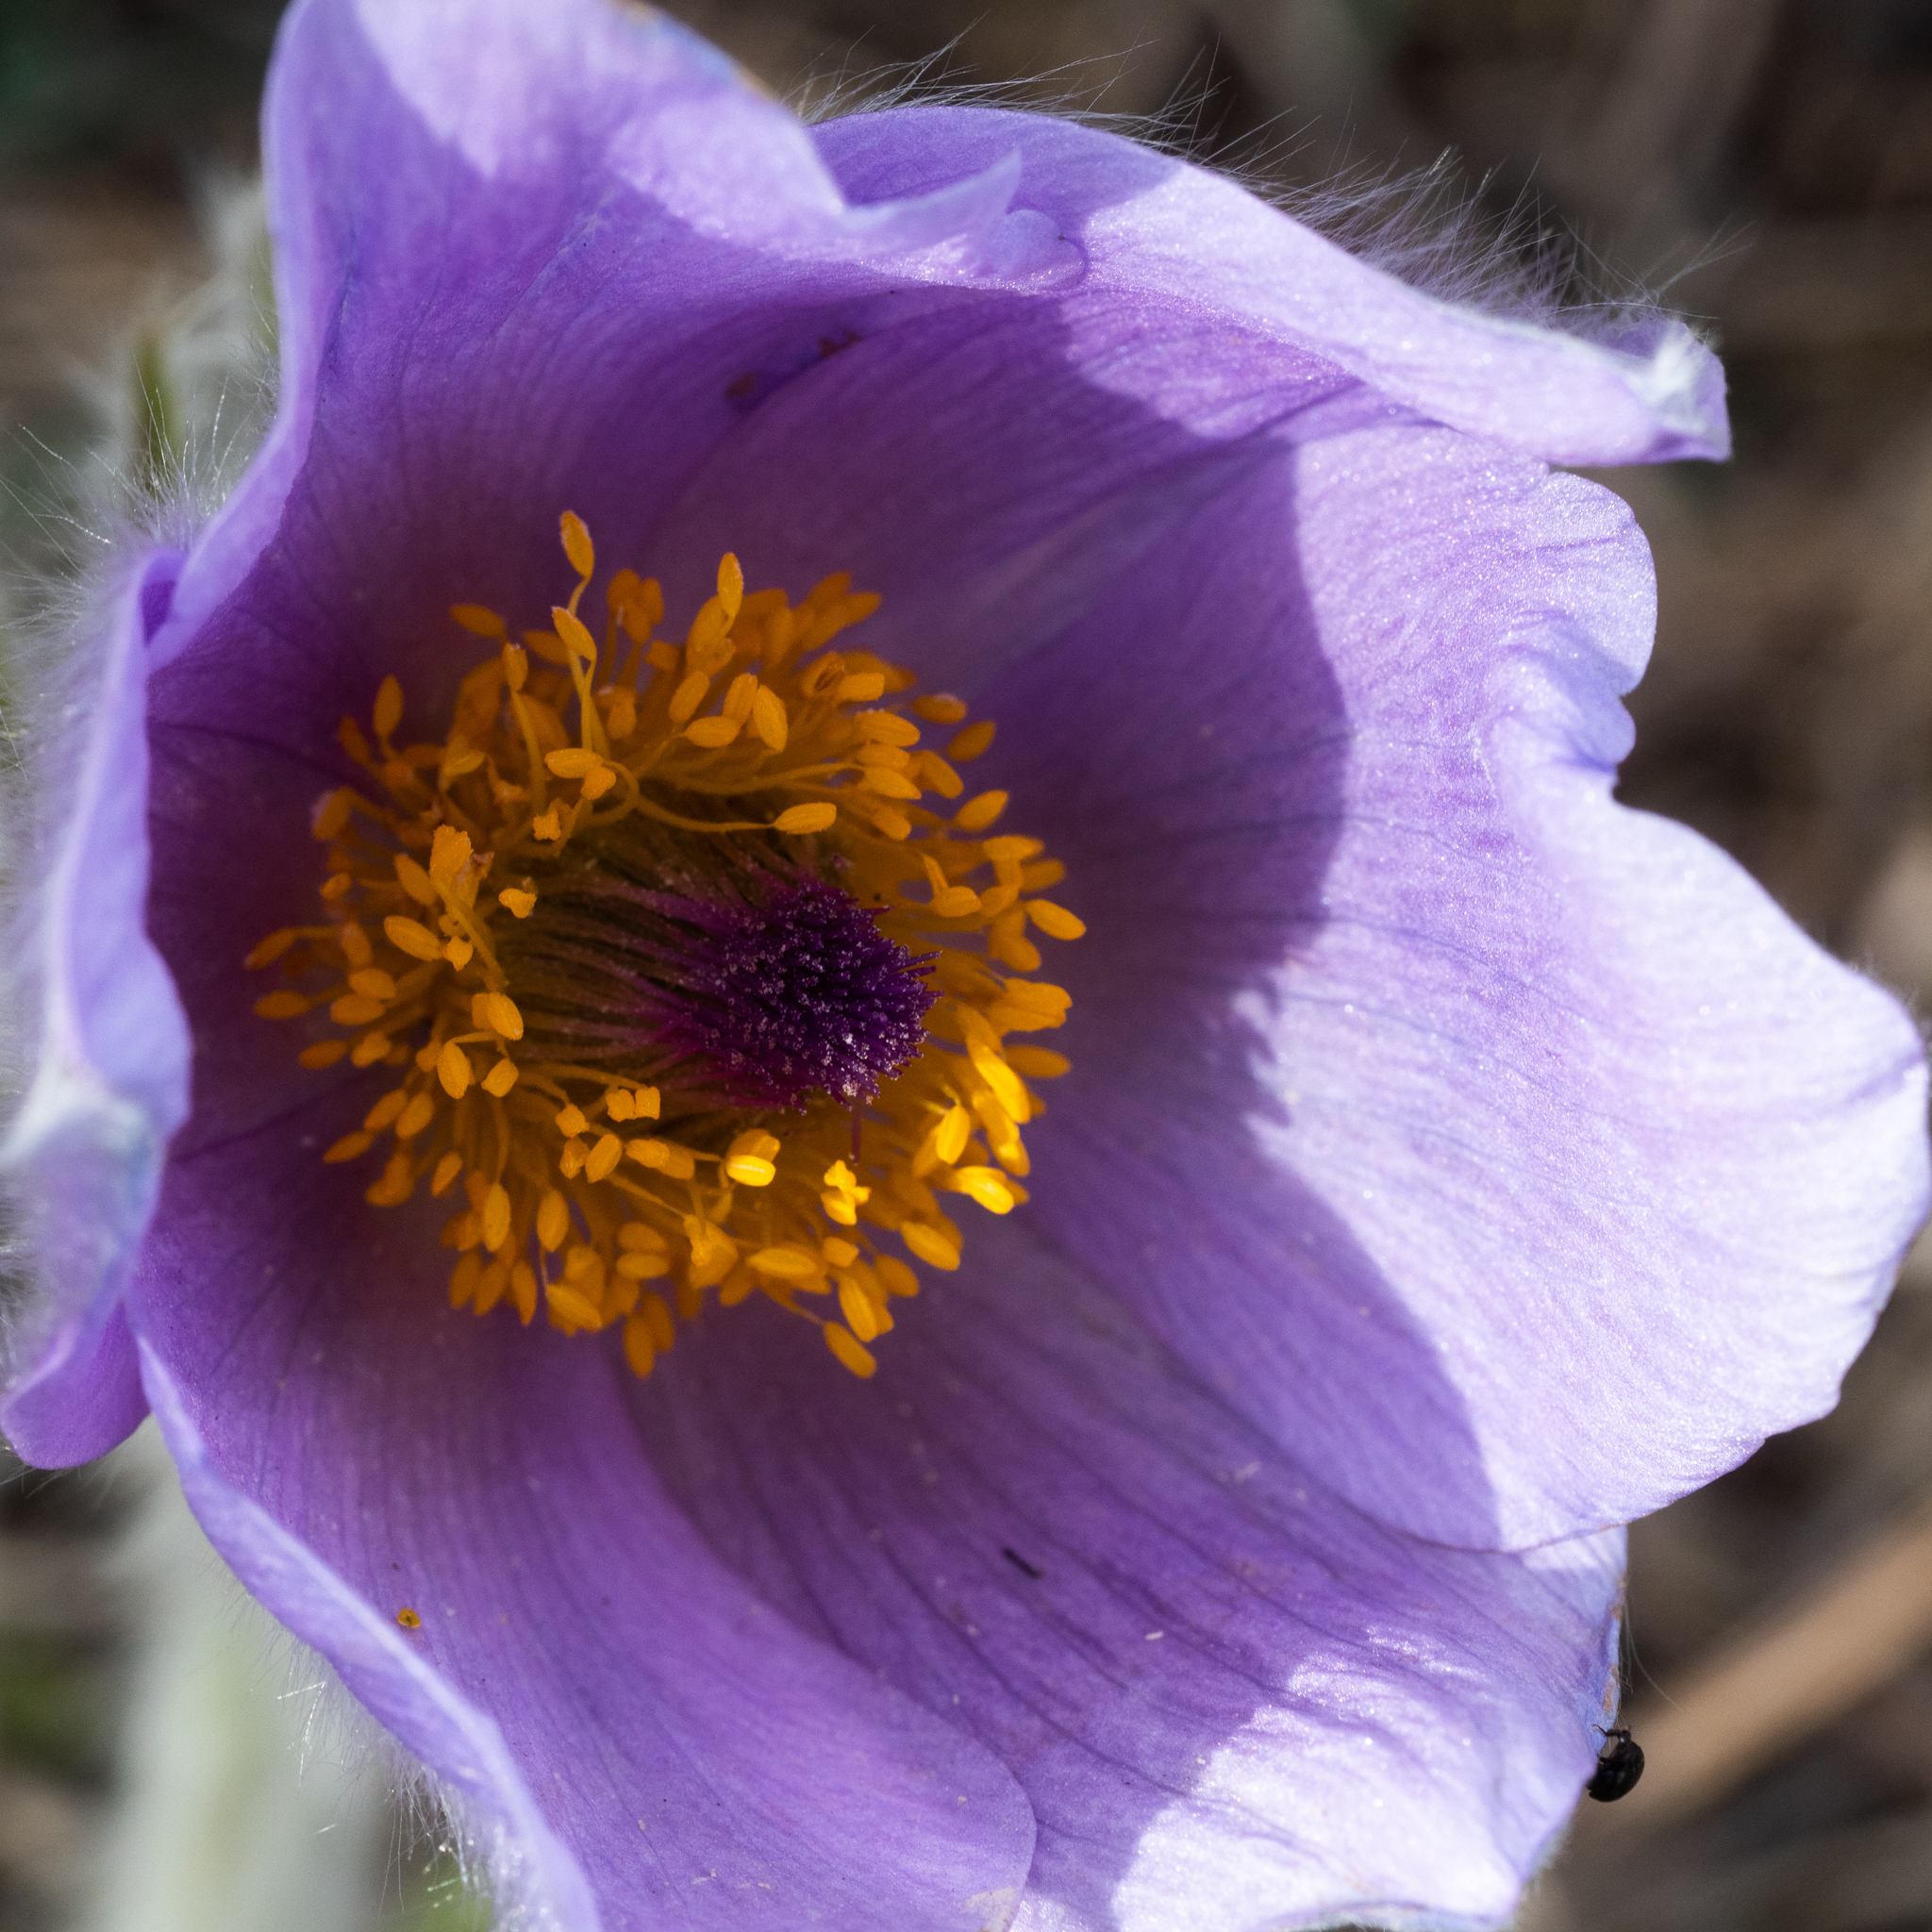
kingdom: Plantae
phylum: Tracheophyta
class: Magnoliopsida
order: Ranunculales
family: Ranunculaceae
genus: Pulsatilla
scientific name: Pulsatilla grandis
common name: Greater pasque flower
